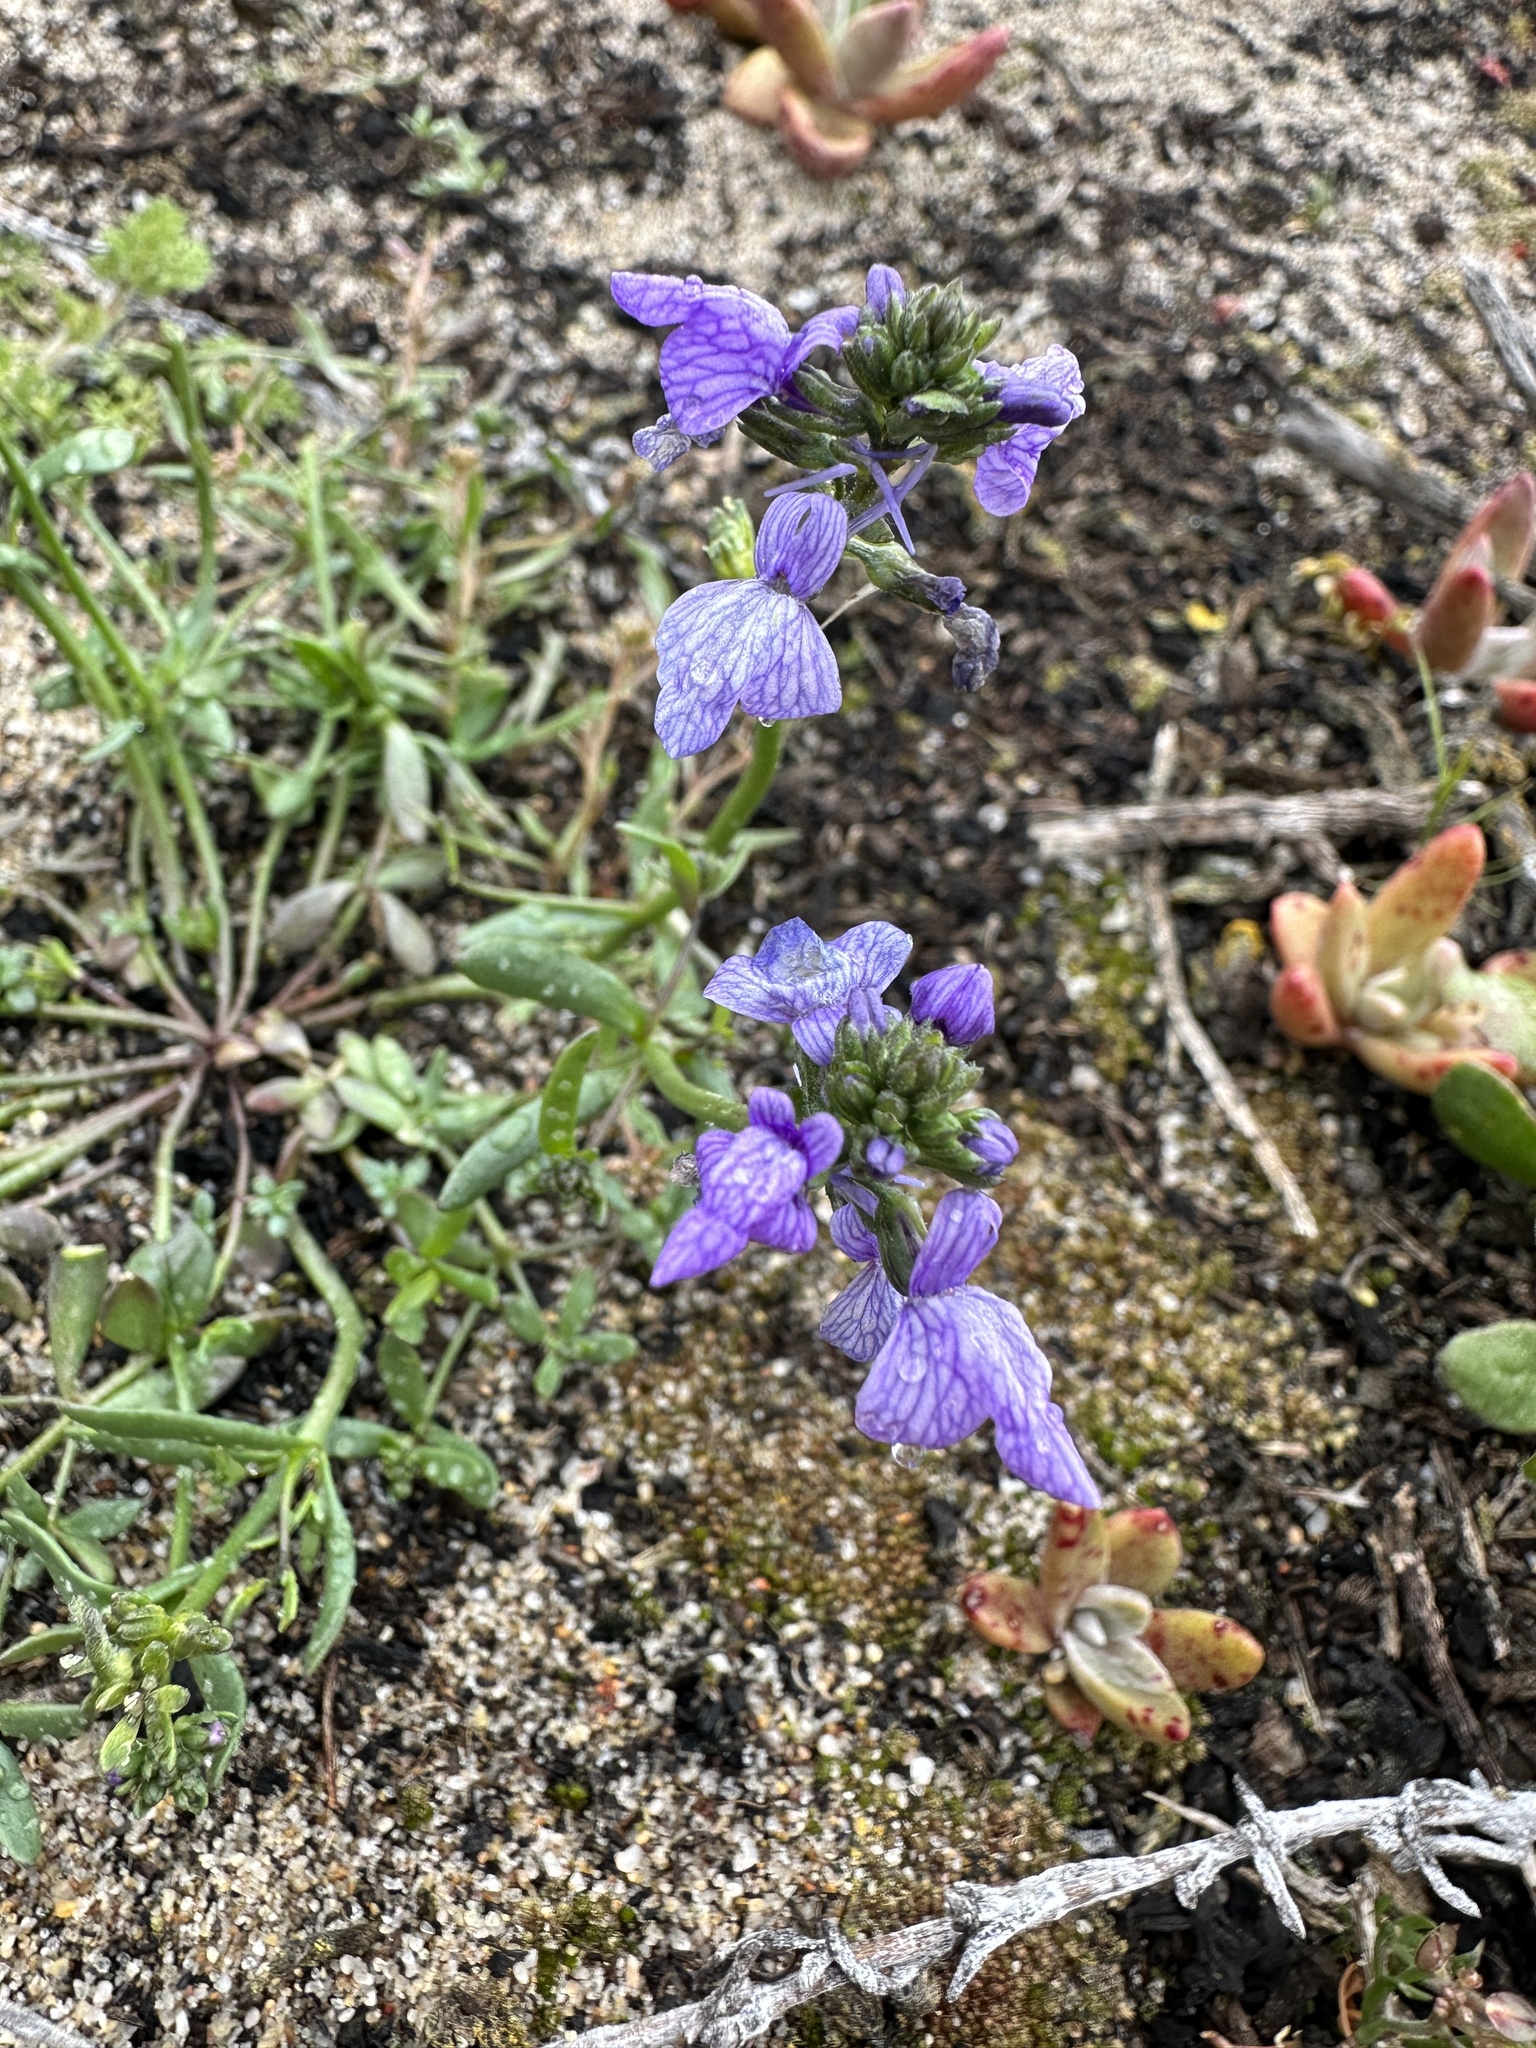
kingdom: Plantae
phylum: Tracheophyta
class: Magnoliopsida
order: Lamiales
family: Plantaginaceae
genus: Nuttallanthus
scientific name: Nuttallanthus texanus
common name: Texas toadflax
